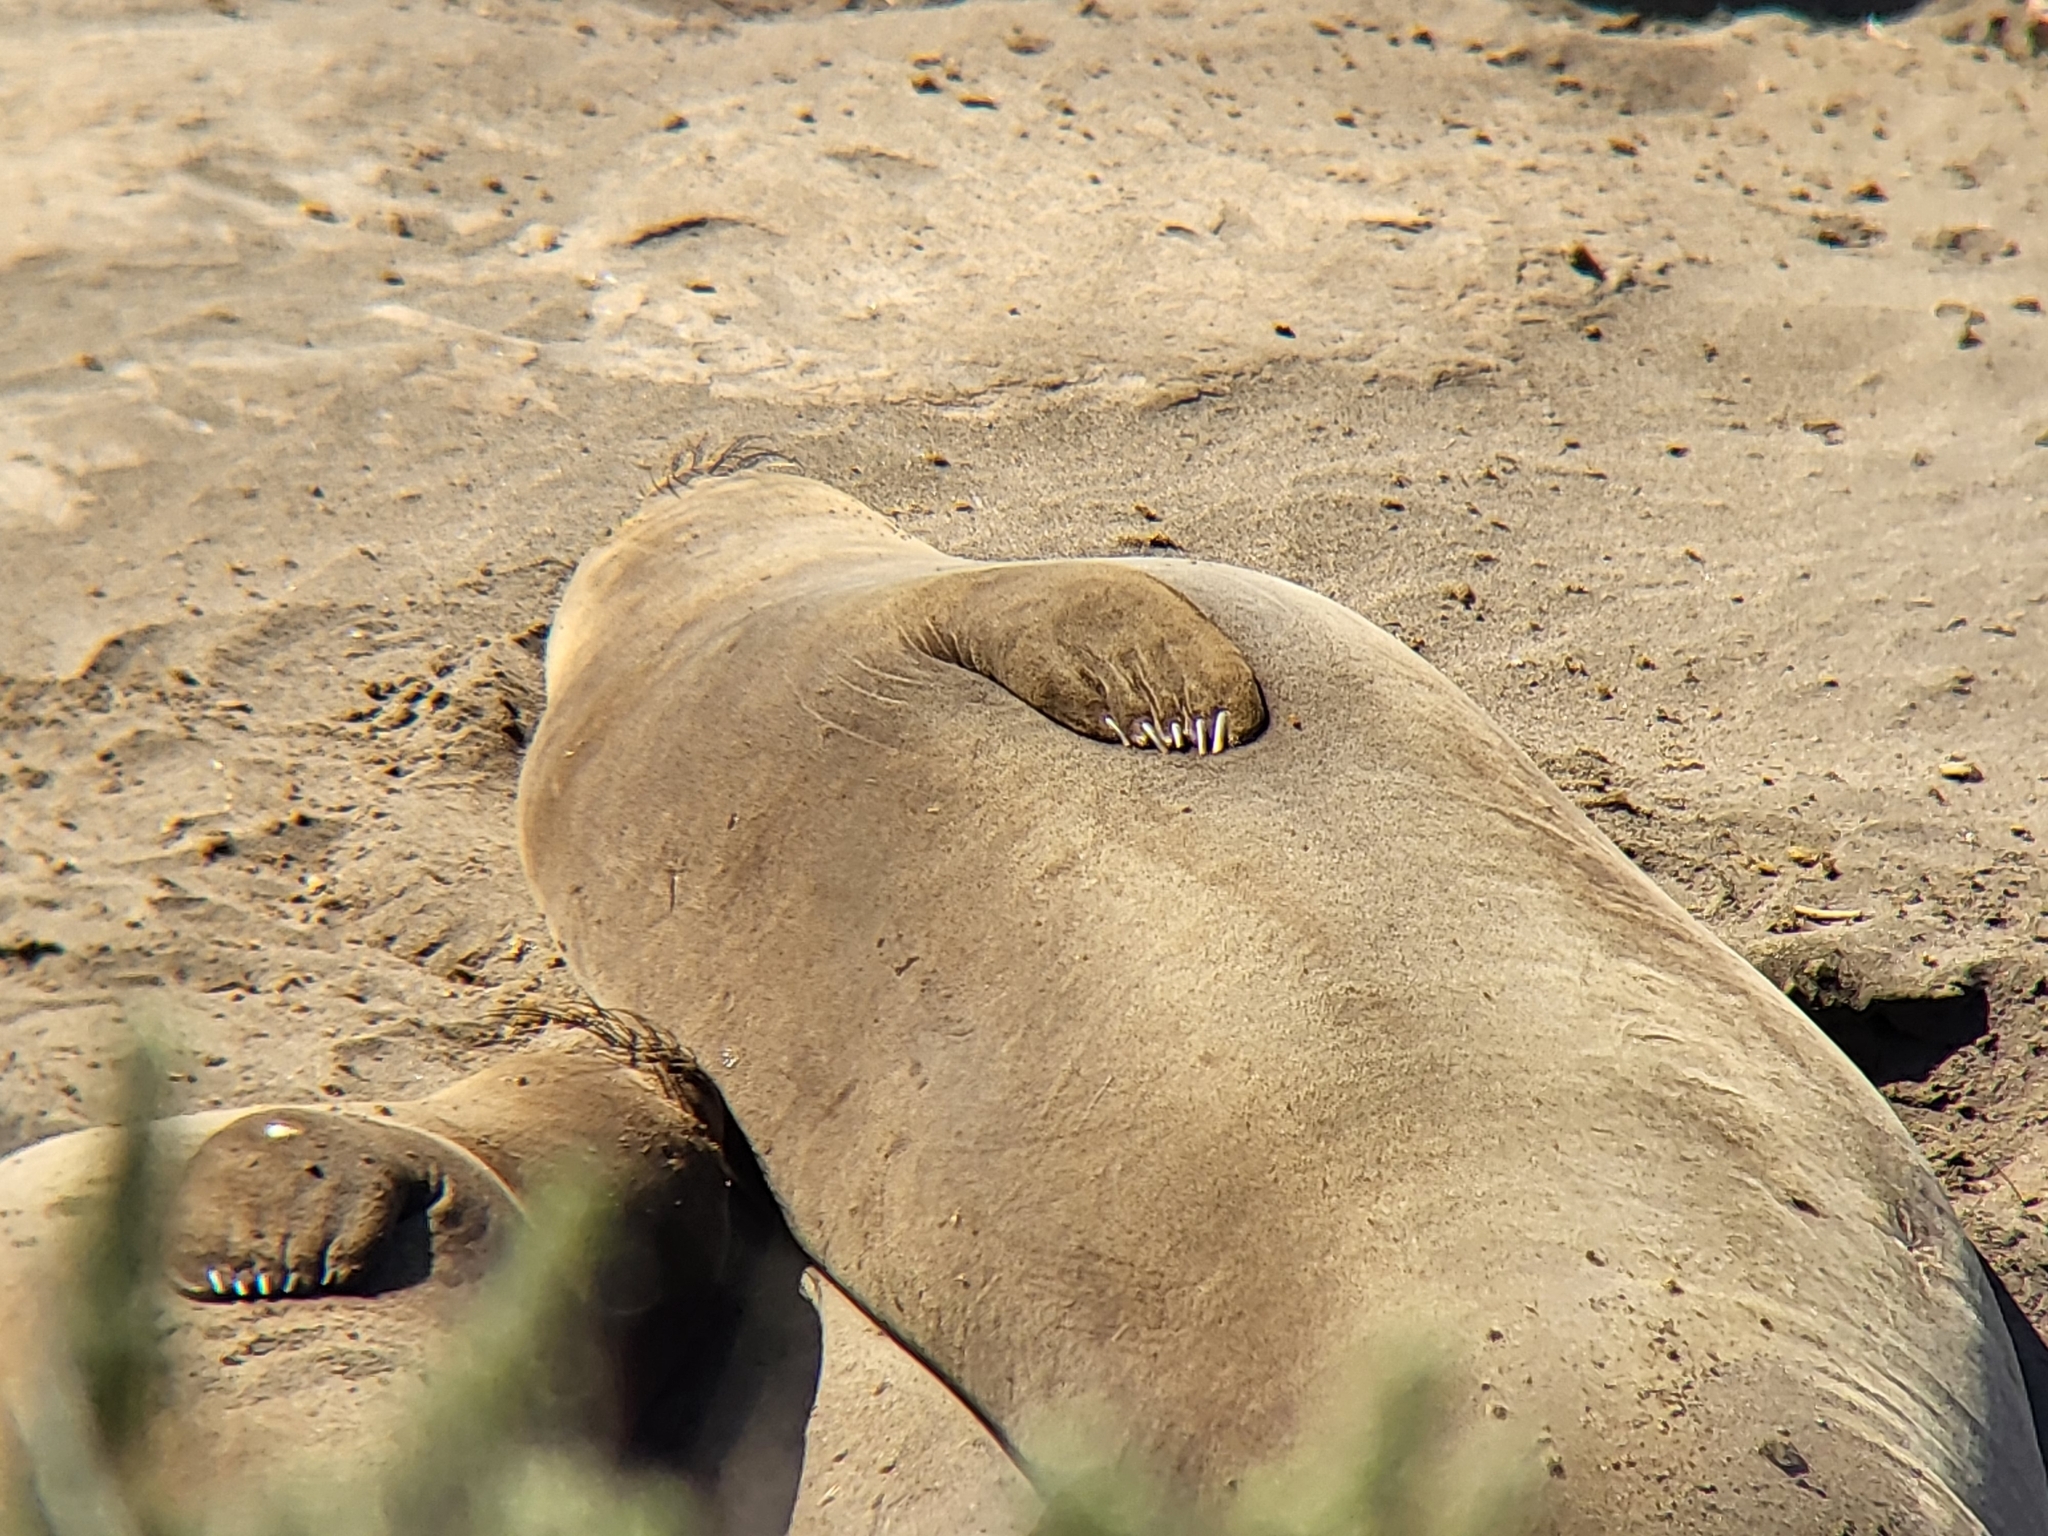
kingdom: Animalia
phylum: Chordata
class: Mammalia
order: Carnivora
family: Phocidae
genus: Mirounga
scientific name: Mirounga angustirostris
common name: Northern elephant seal
